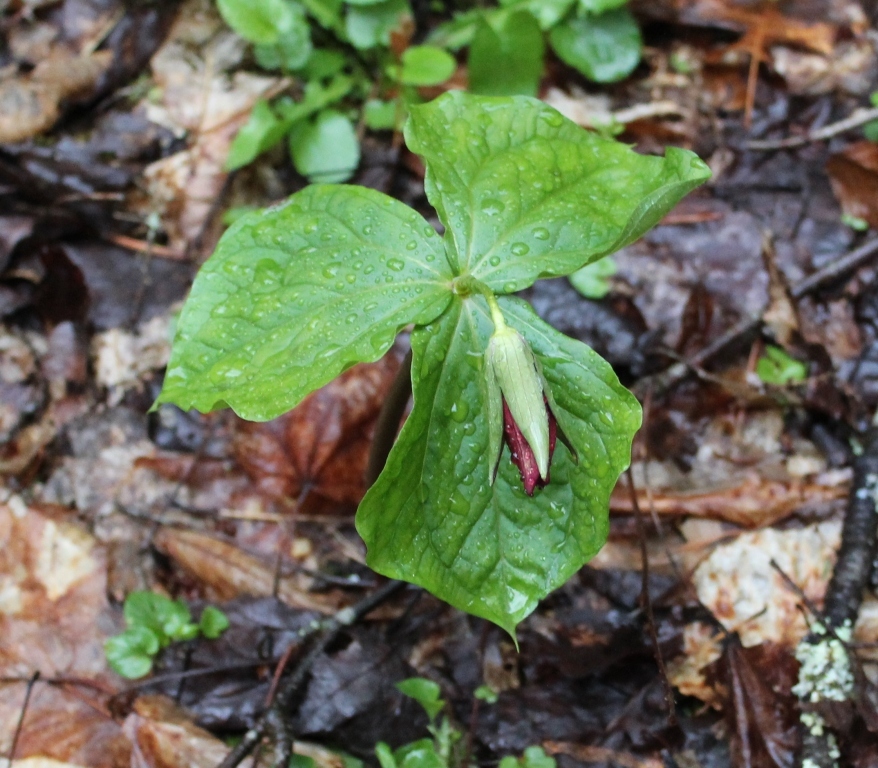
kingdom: Plantae
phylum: Tracheophyta
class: Liliopsida
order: Liliales
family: Melanthiaceae
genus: Trillium
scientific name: Trillium erectum
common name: Purple trillium
